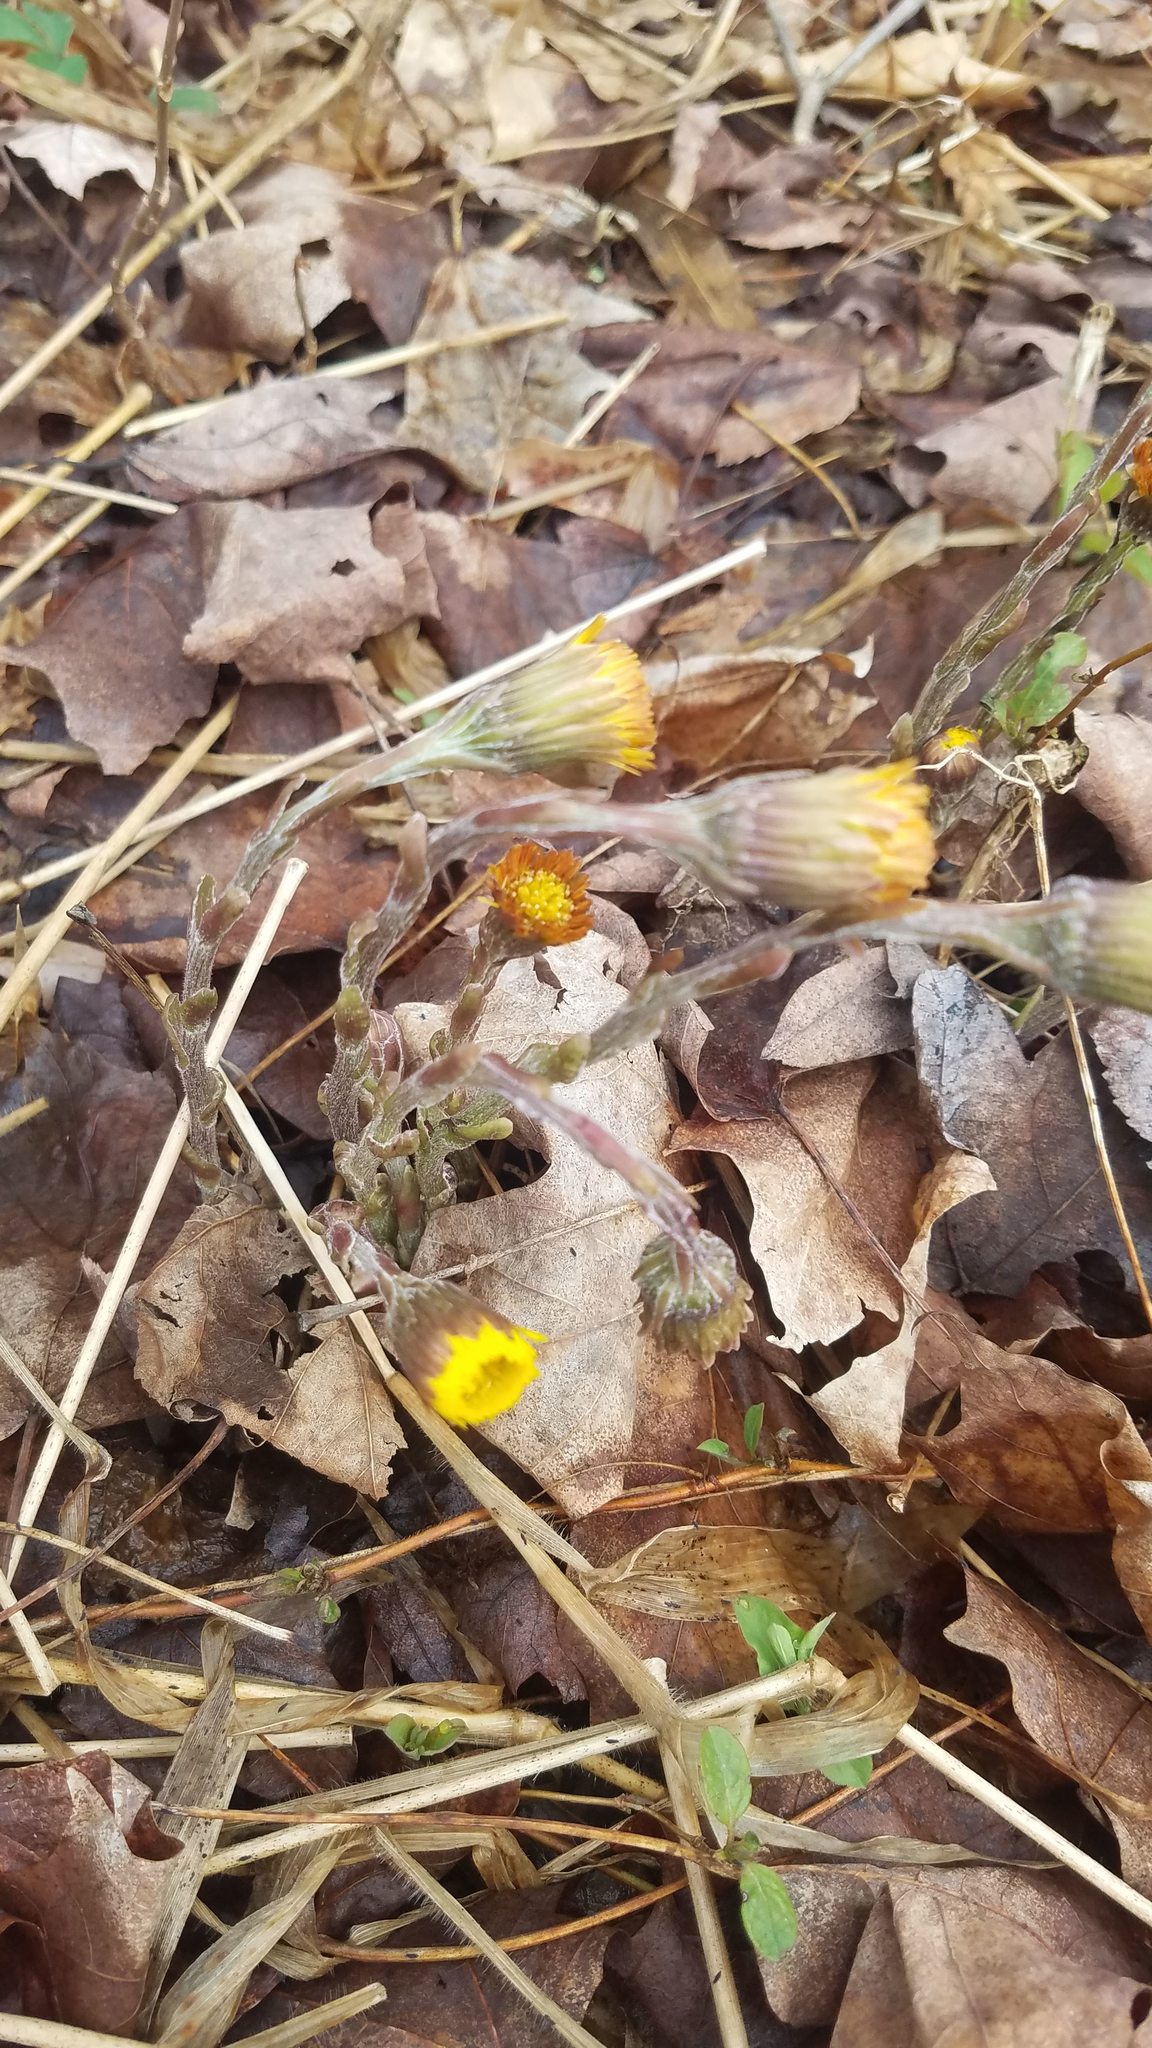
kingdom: Plantae
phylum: Tracheophyta
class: Magnoliopsida
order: Asterales
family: Asteraceae
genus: Tussilago
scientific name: Tussilago farfara
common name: Coltsfoot
